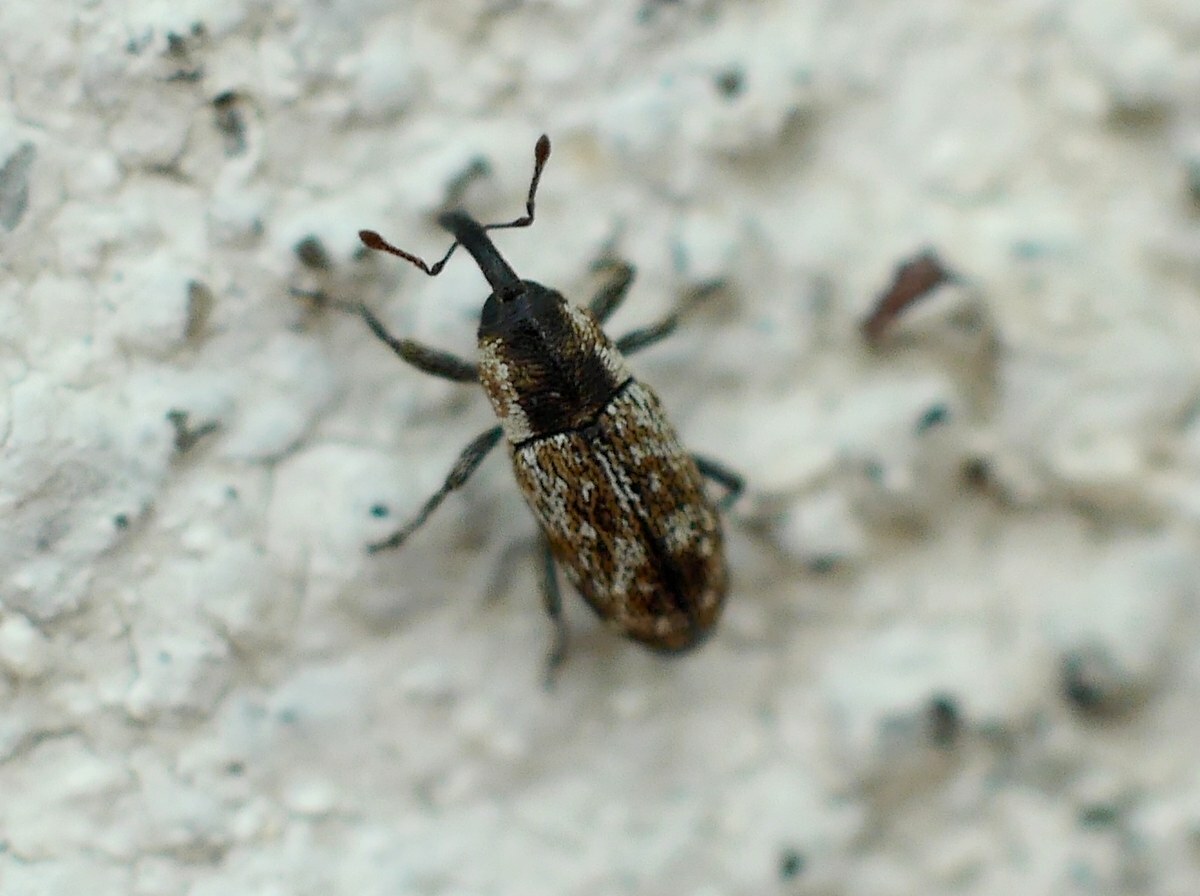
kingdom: Animalia
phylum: Arthropoda
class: Insecta
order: Coleoptera
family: Curculionidae
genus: Cosmobaris
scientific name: Cosmobaris scolopacea
